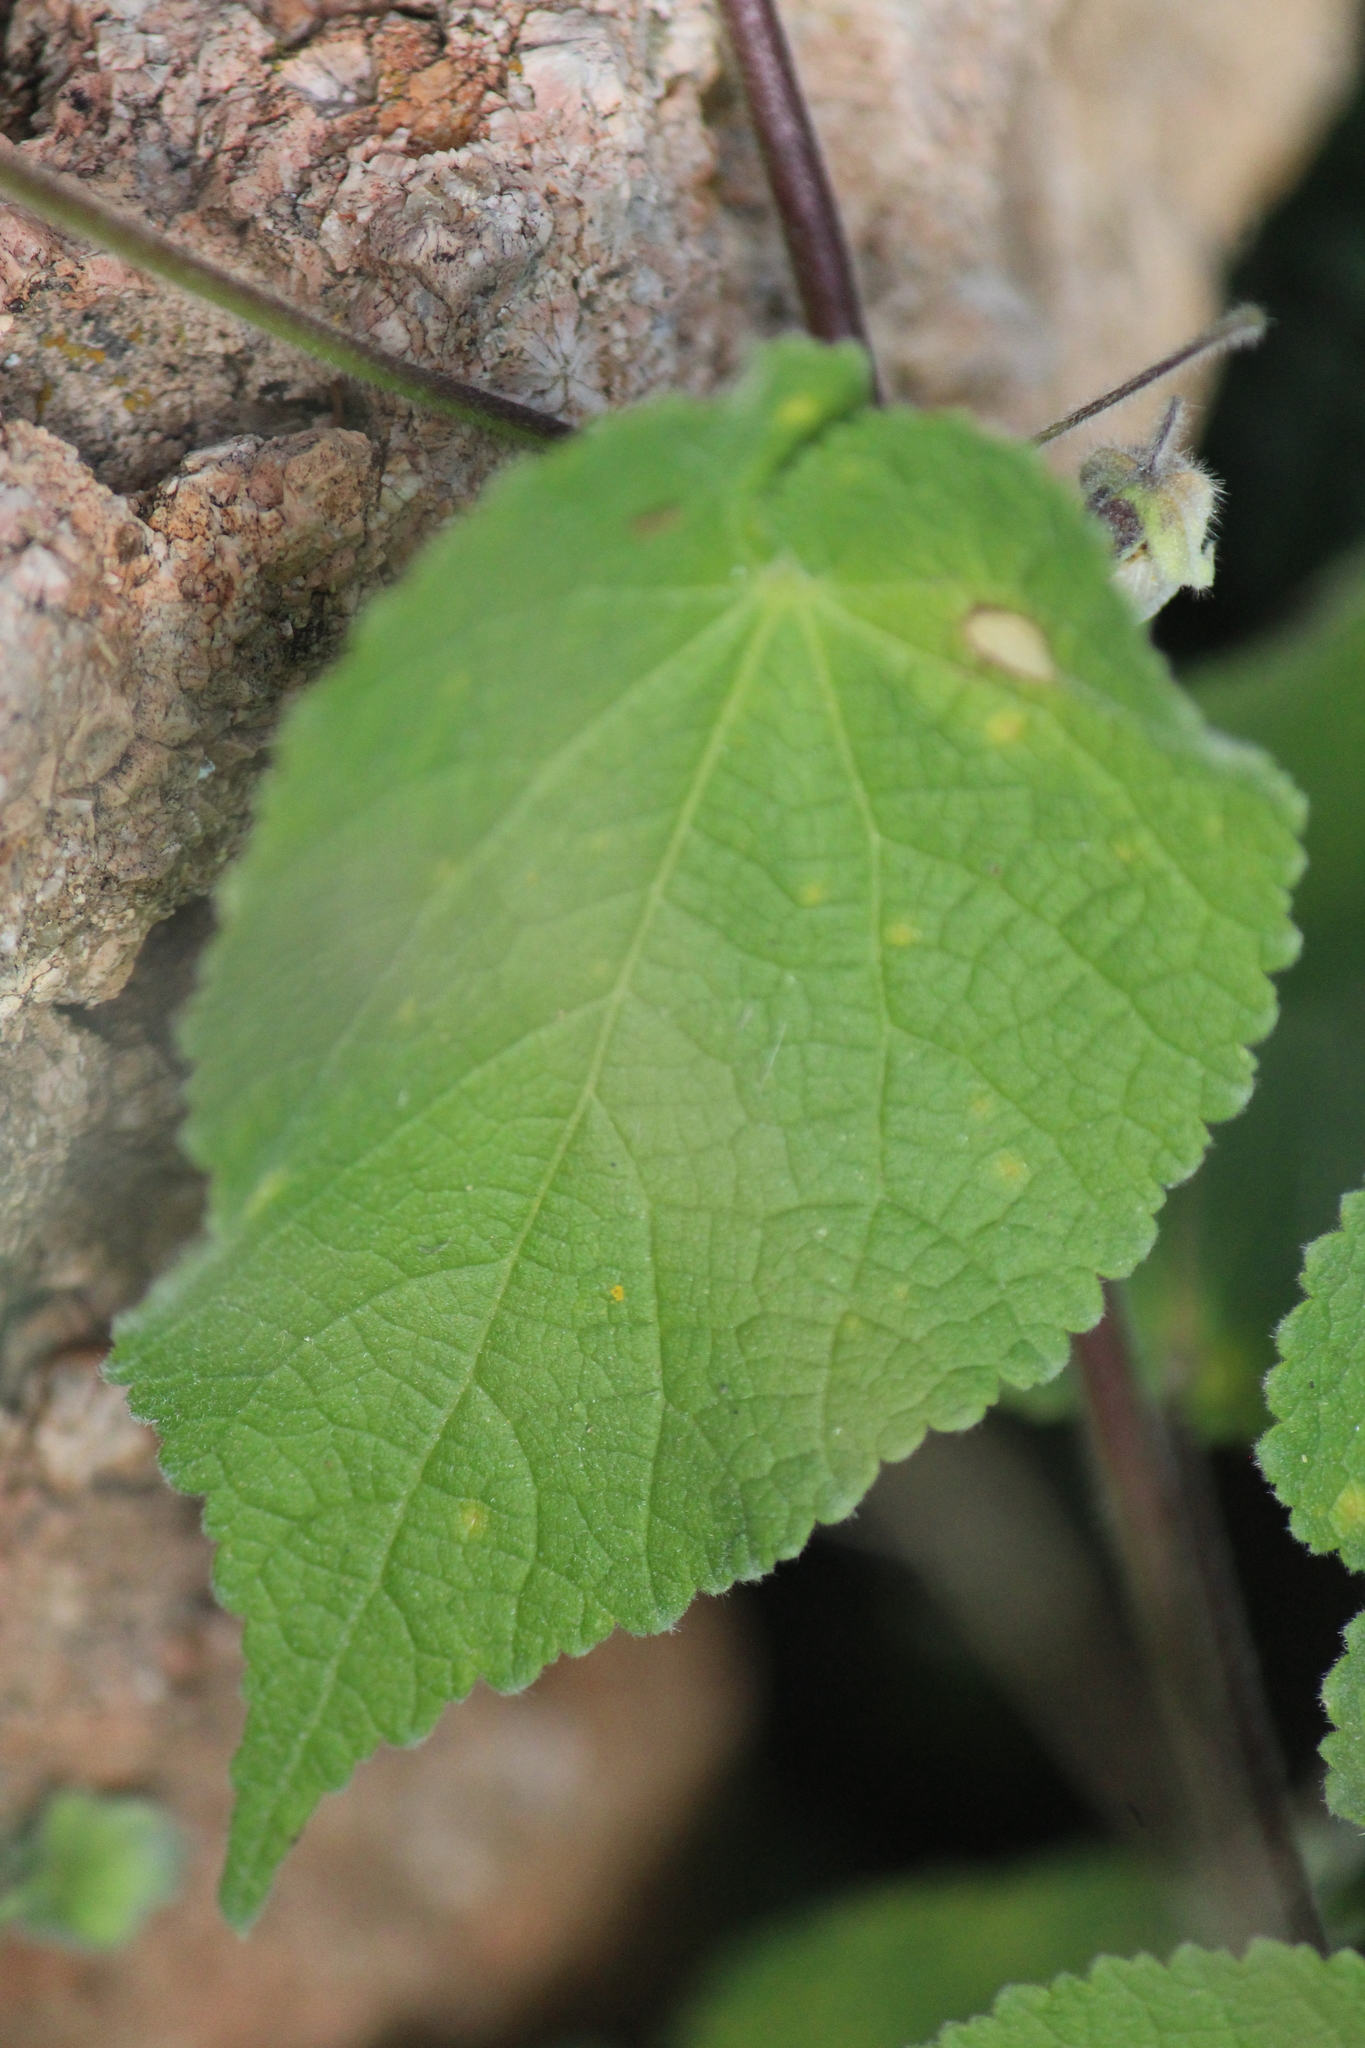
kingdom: Plantae
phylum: Tracheophyta
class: Magnoliopsida
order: Malvales
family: Malvaceae
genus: Herissantia
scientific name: Herissantia crispa
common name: Bladdermallow
